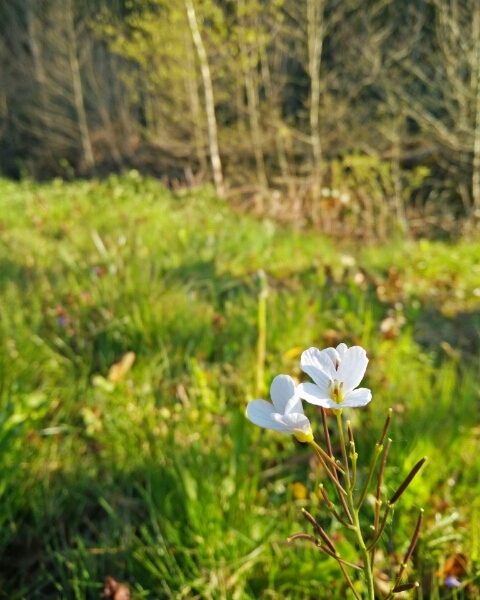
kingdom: Plantae
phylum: Tracheophyta
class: Magnoliopsida
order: Brassicales
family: Brassicaceae
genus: Cardamine
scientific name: Cardamine pratensis
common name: Cuckoo flower
